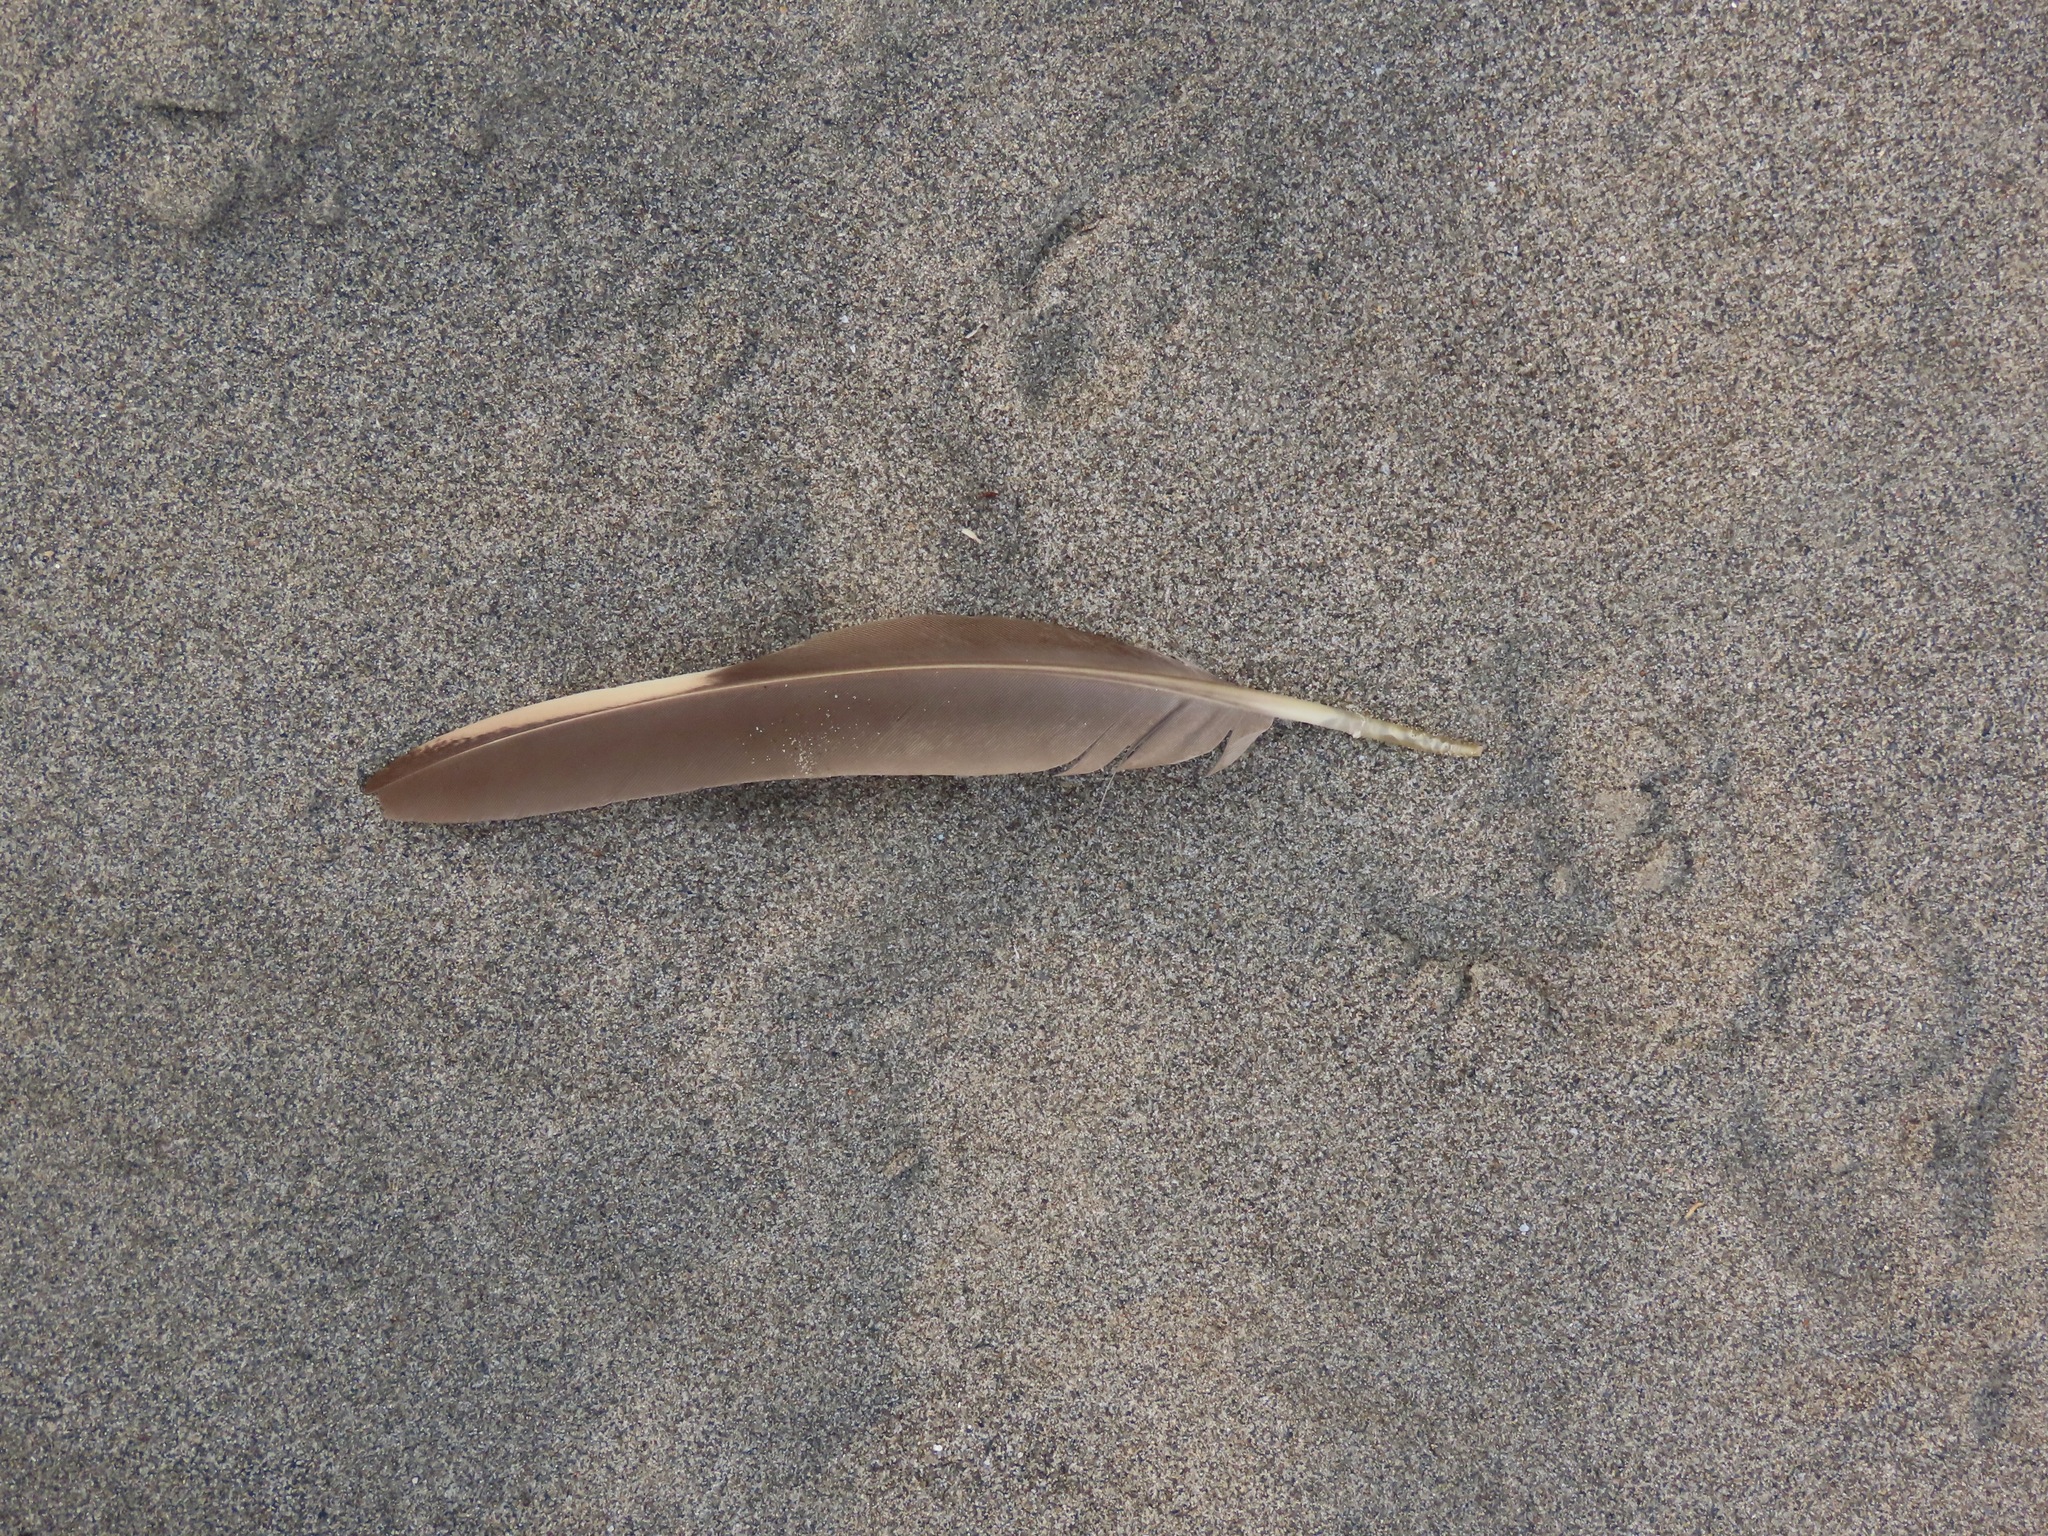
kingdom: Animalia
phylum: Chordata
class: Aves
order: Galliformes
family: Phasianidae
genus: Alectoris
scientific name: Alectoris chukar
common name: Chukar
